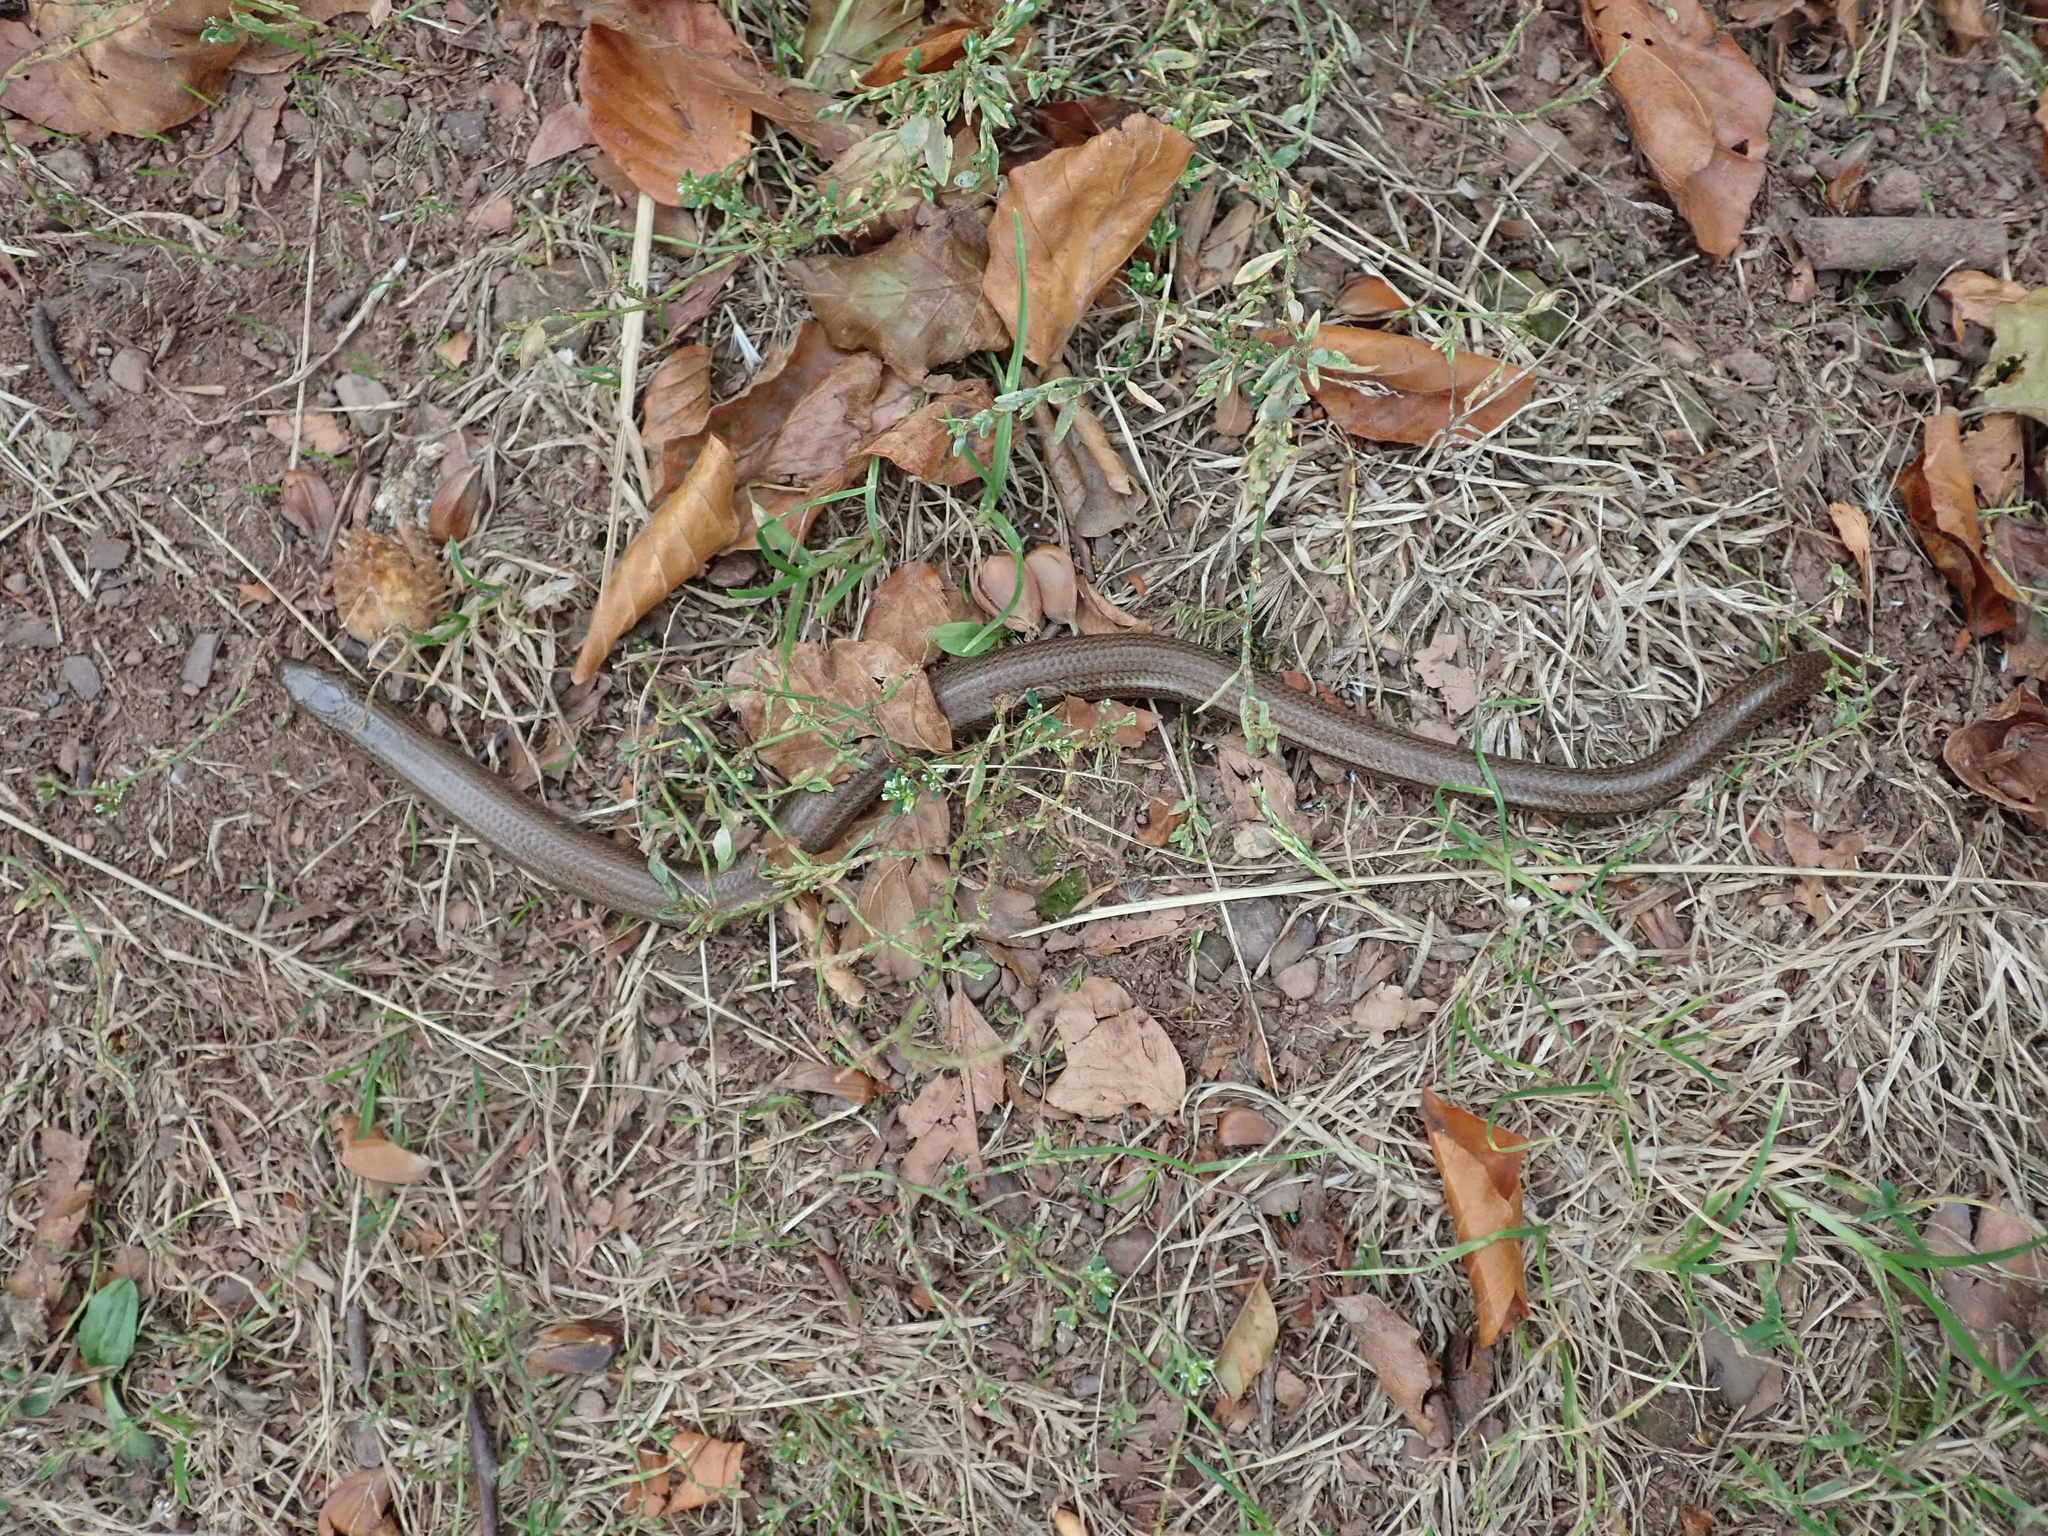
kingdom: Animalia
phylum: Chordata
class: Squamata
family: Anguidae
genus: Anguis
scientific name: Anguis fragilis
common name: Slow worm
